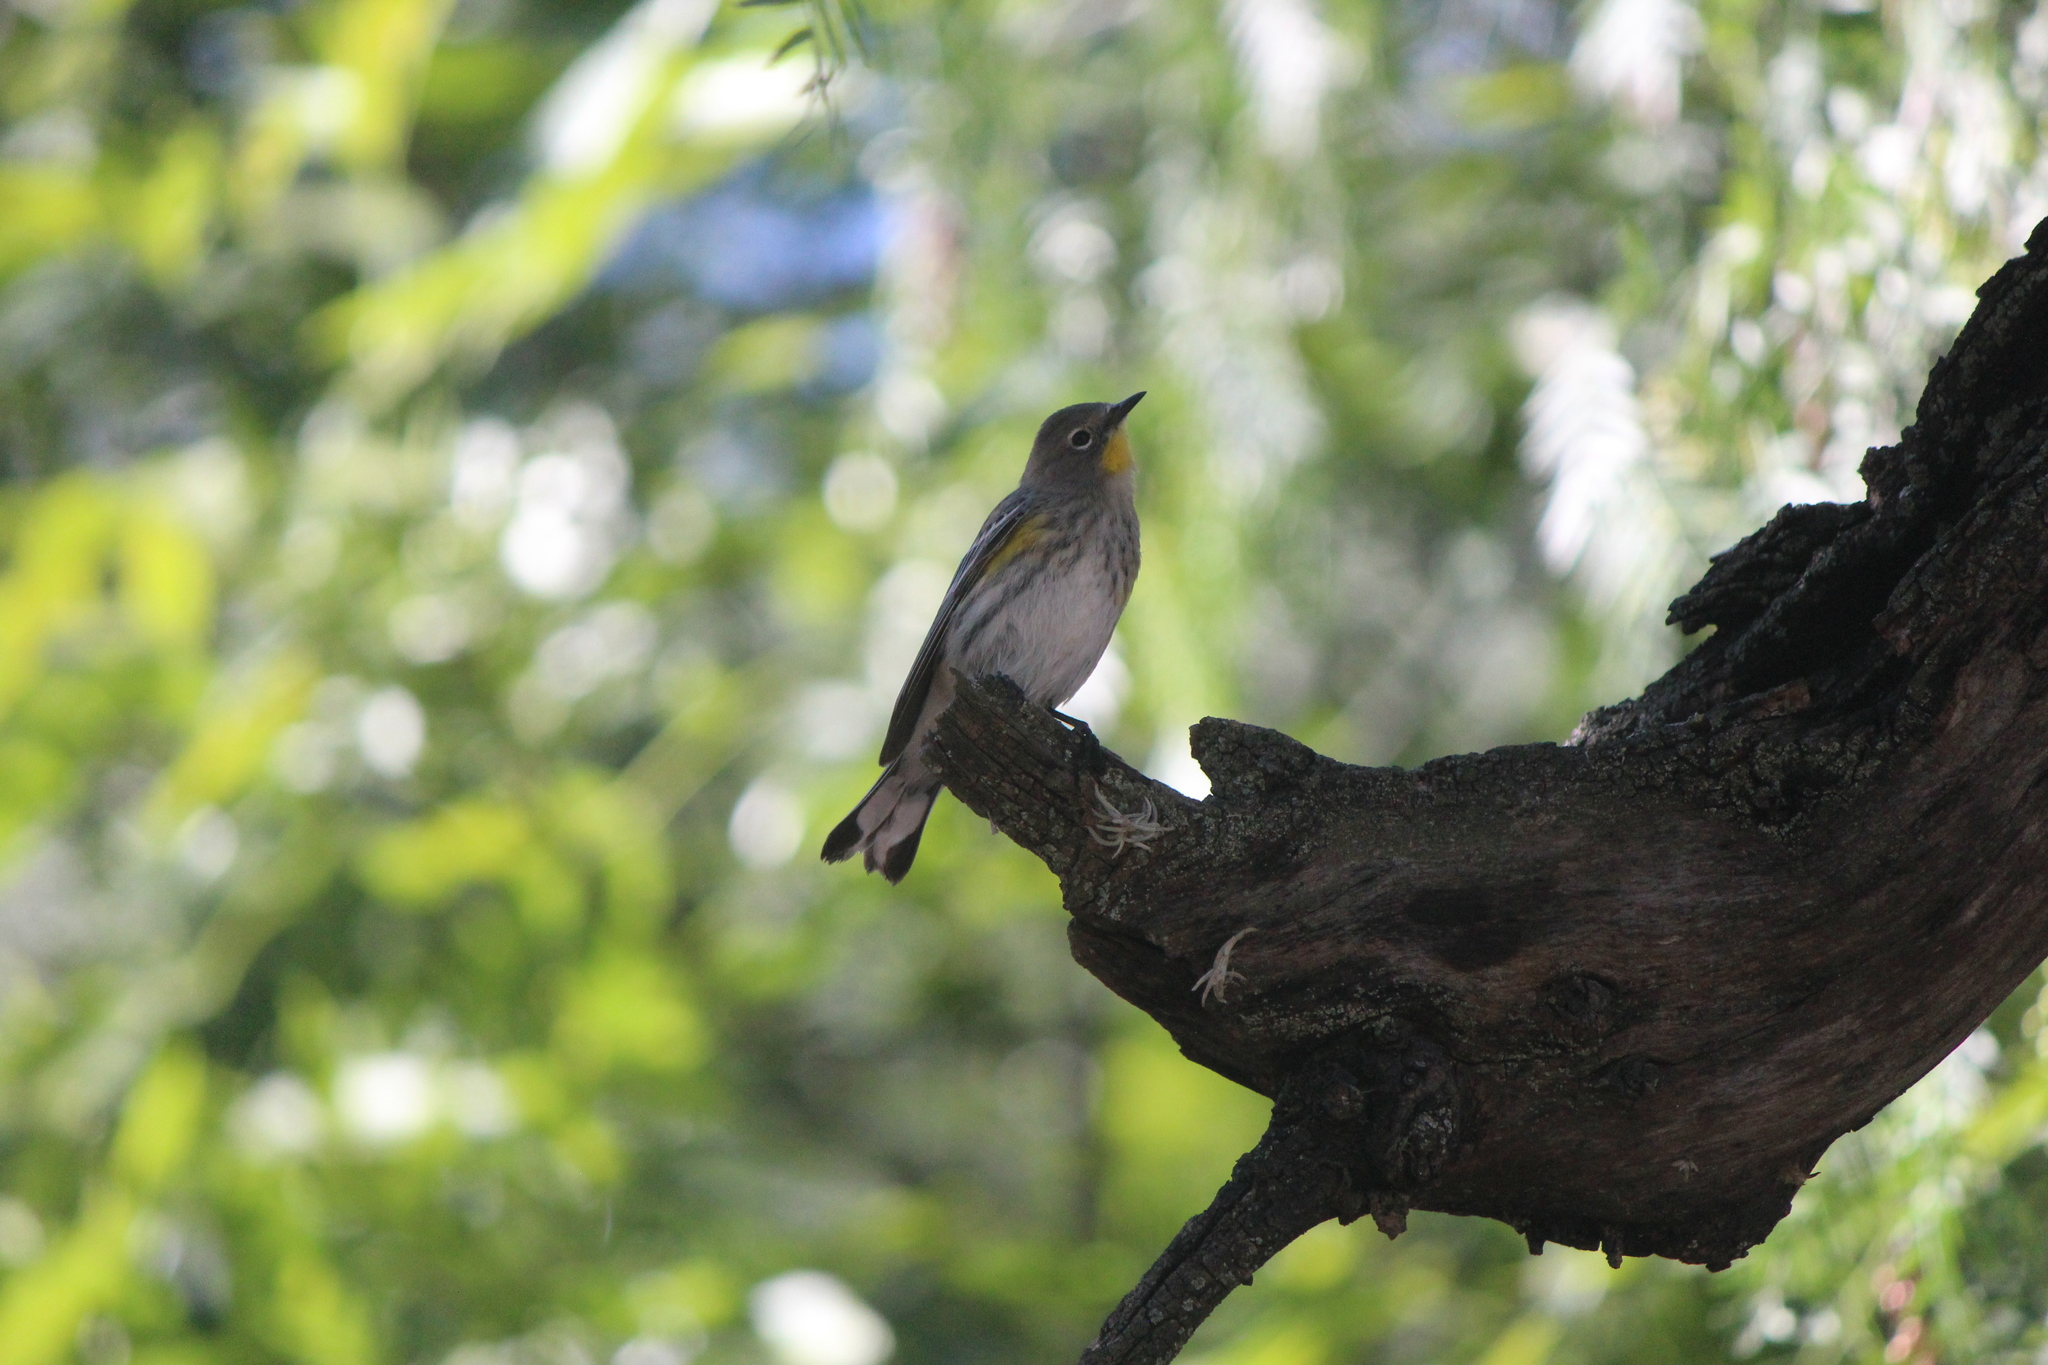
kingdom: Animalia
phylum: Chordata
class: Aves
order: Passeriformes
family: Parulidae
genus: Setophaga
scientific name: Setophaga auduboni
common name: Audubon's warbler
